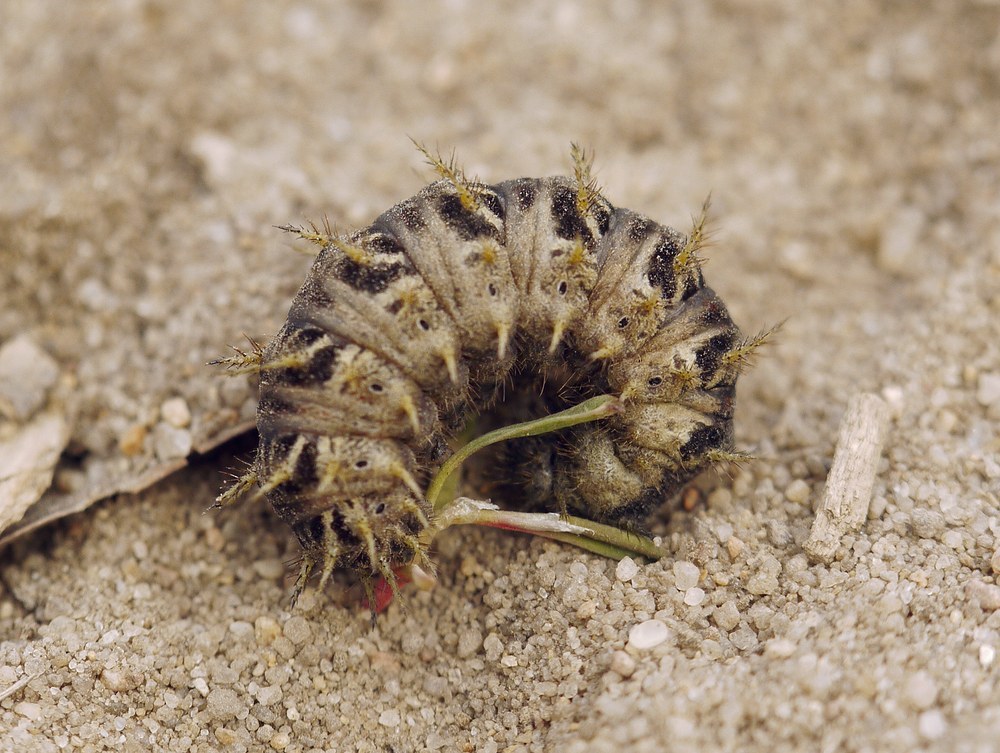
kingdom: Animalia
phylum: Arthropoda
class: Insecta
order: Lepidoptera
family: Nymphalidae
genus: Damora
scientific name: Damora pandora
